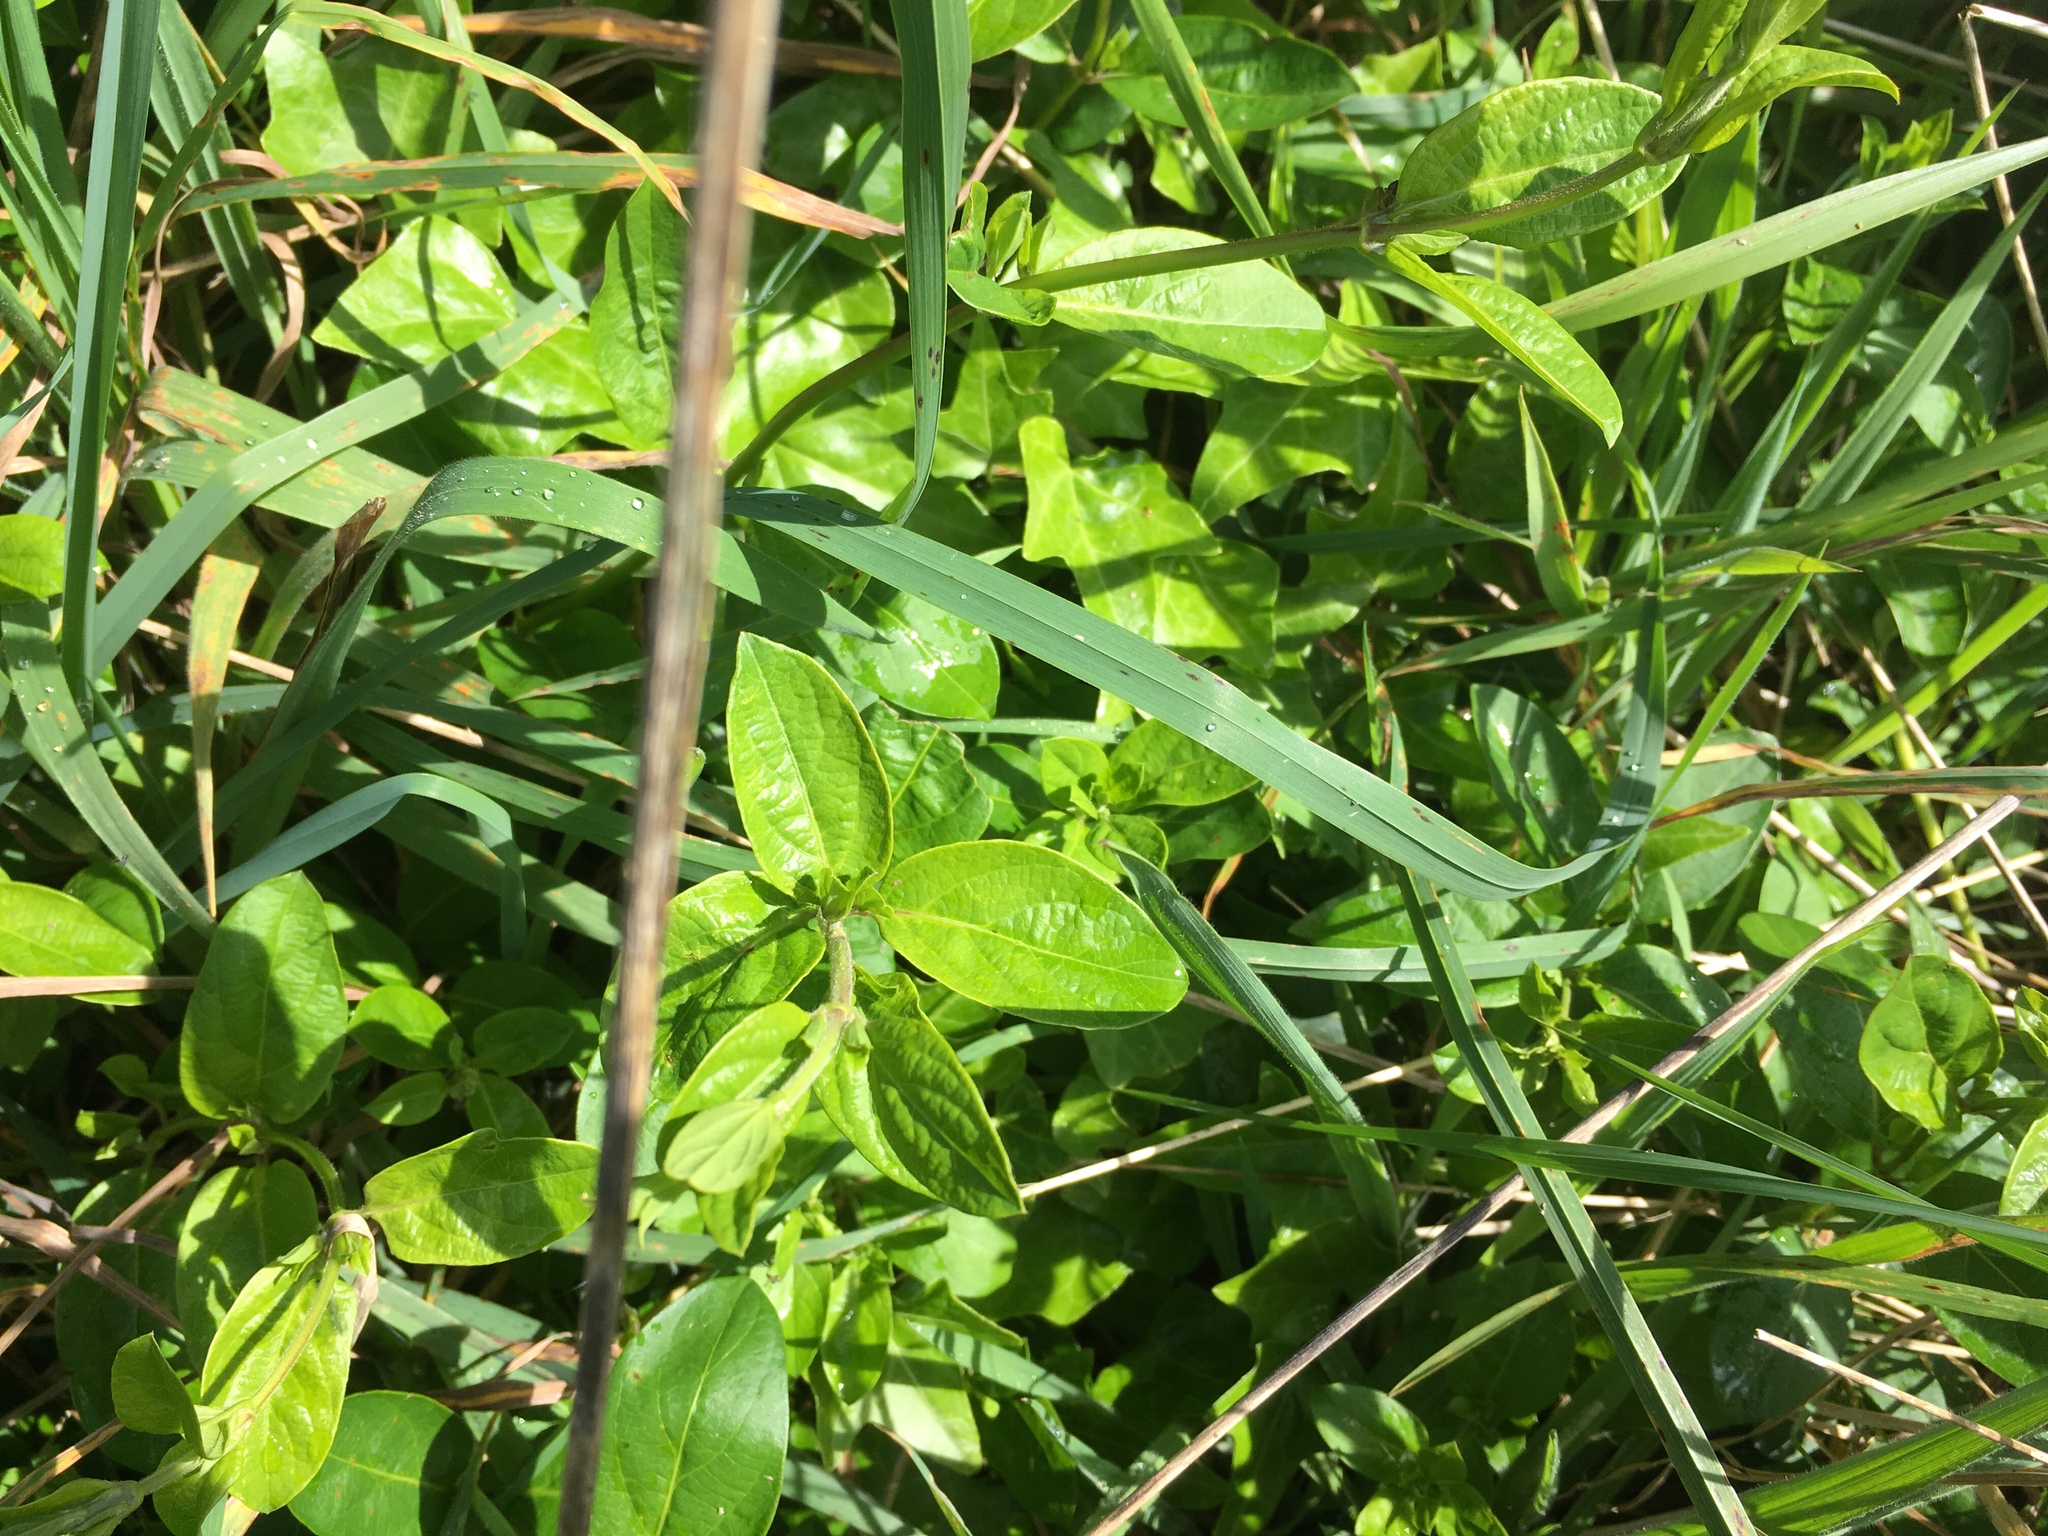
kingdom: Plantae
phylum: Tracheophyta
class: Magnoliopsida
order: Dipsacales
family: Caprifoliaceae
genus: Lonicera
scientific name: Lonicera japonica
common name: Japanese honeysuckle
